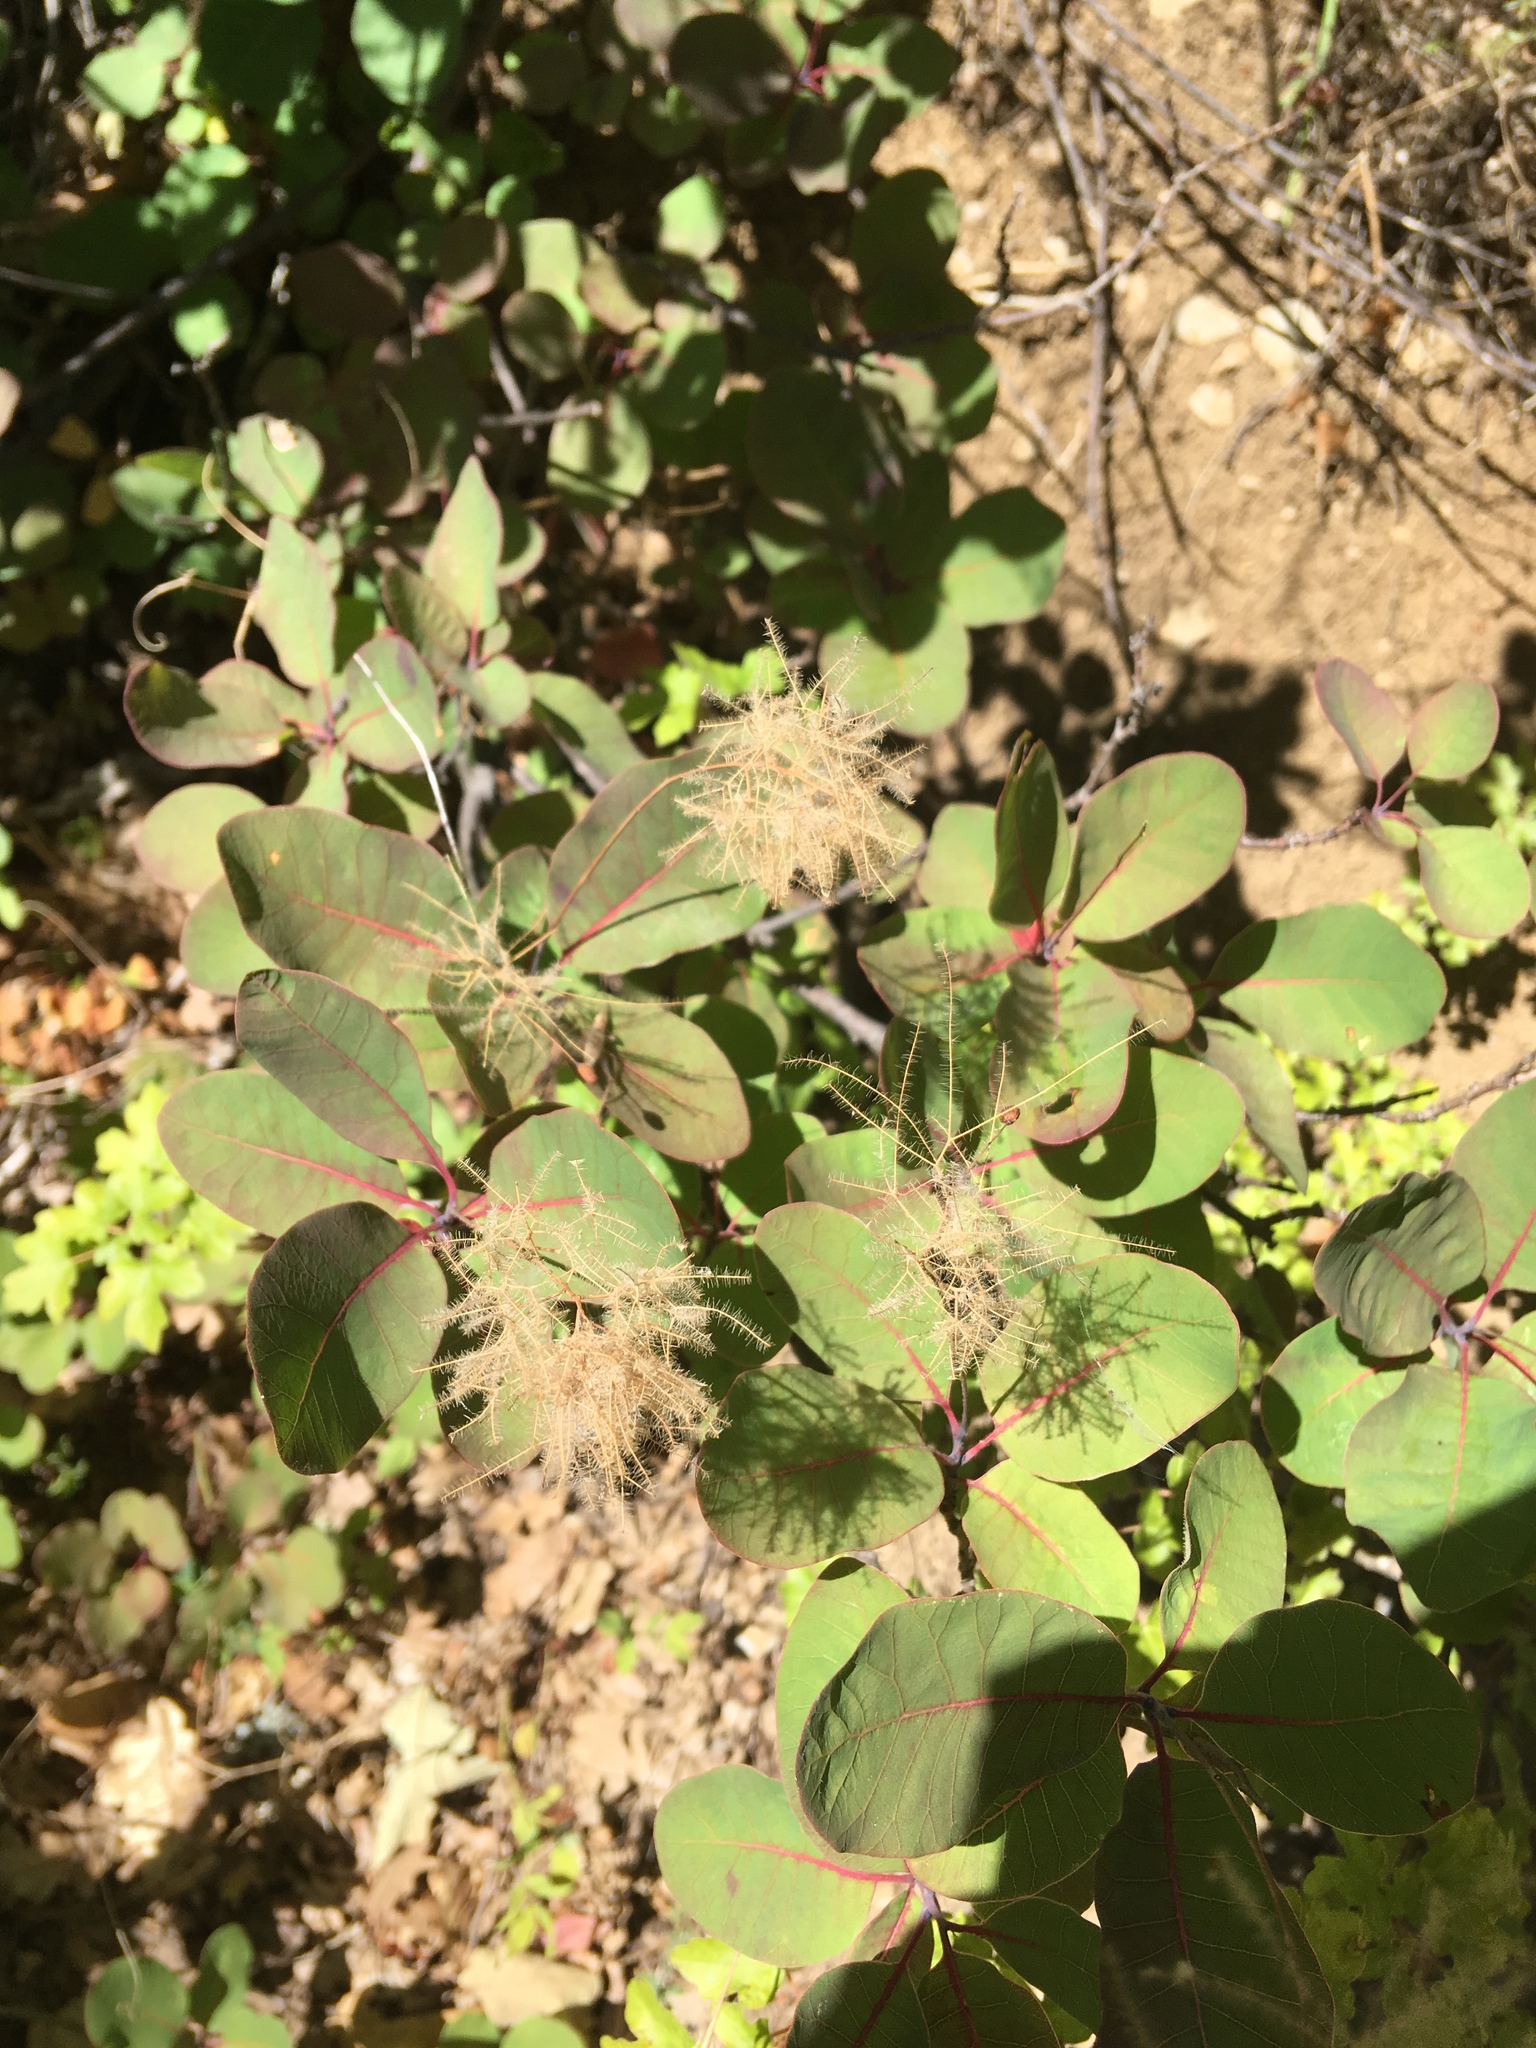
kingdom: Plantae
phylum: Tracheophyta
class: Magnoliopsida
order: Sapindales
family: Anacardiaceae
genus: Cotinus
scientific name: Cotinus coggygria
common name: Smoke-tree
